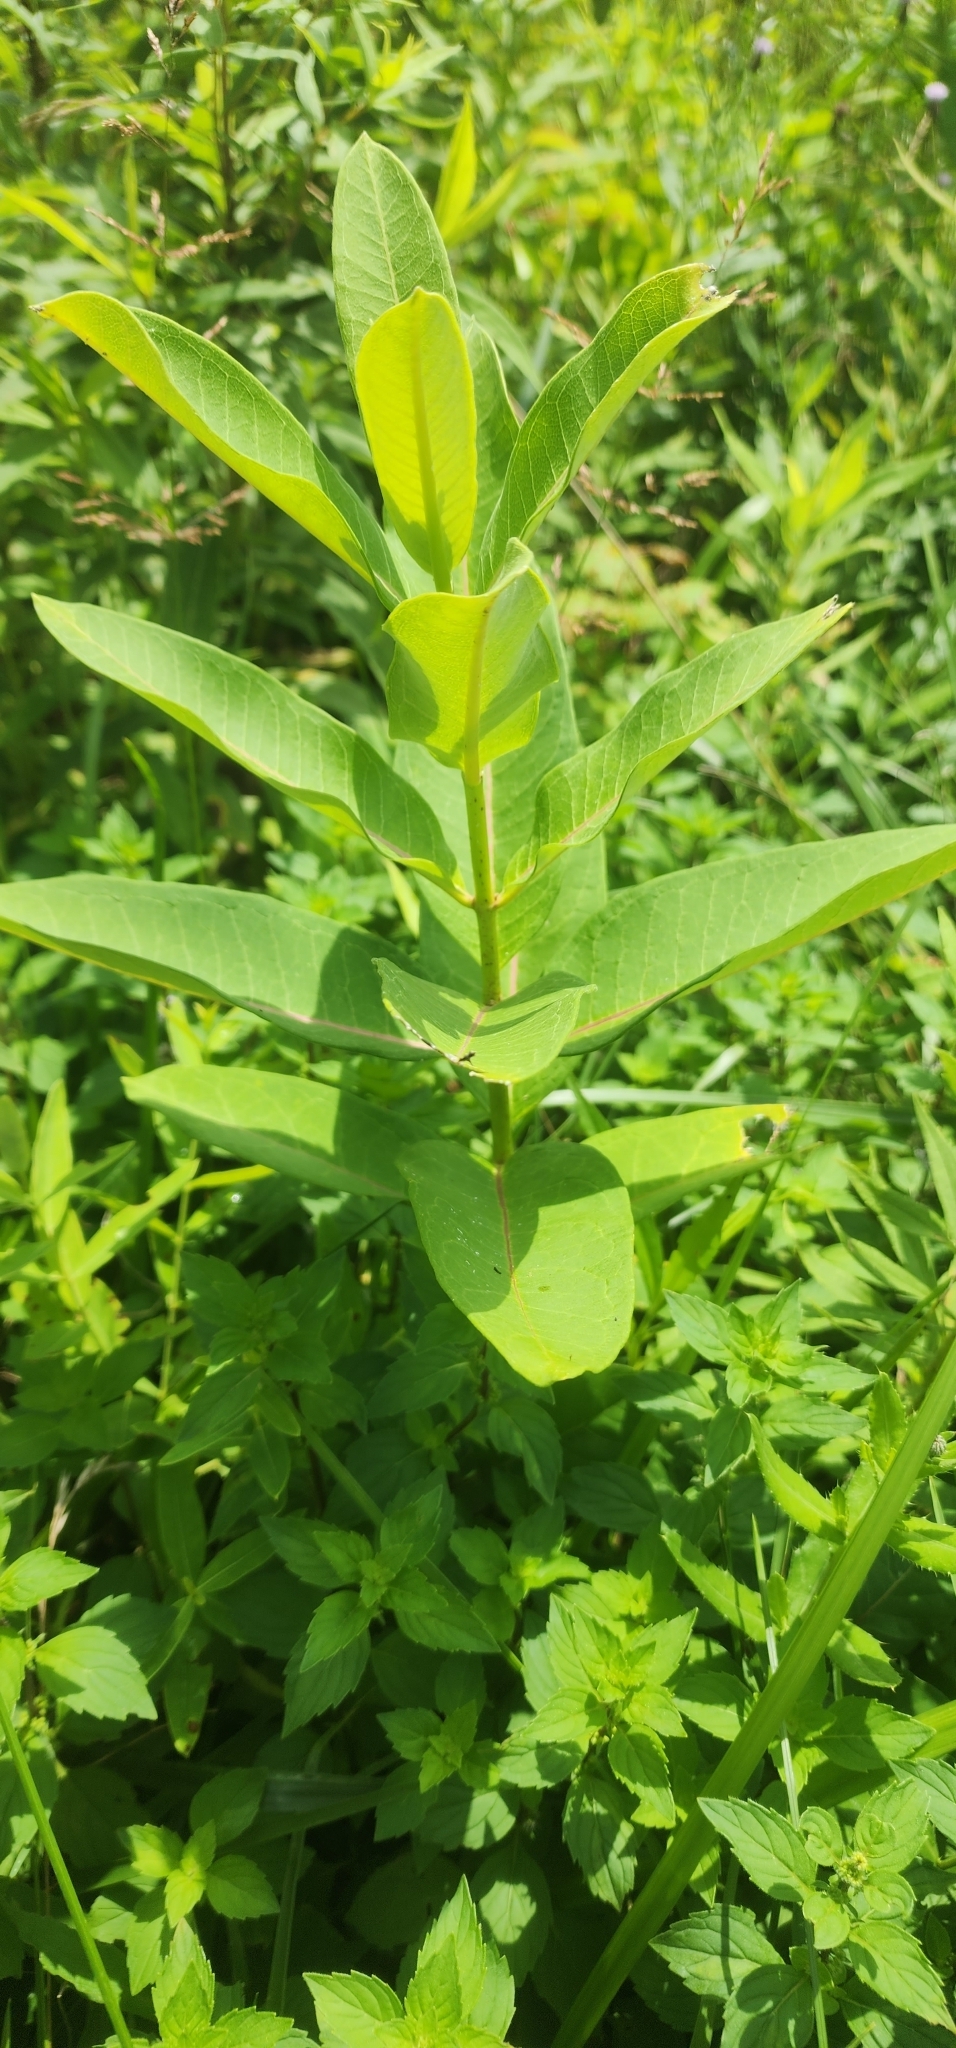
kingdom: Plantae
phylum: Tracheophyta
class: Magnoliopsida
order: Gentianales
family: Apocynaceae
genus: Asclepias
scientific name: Asclepias syriaca
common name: Common milkweed
